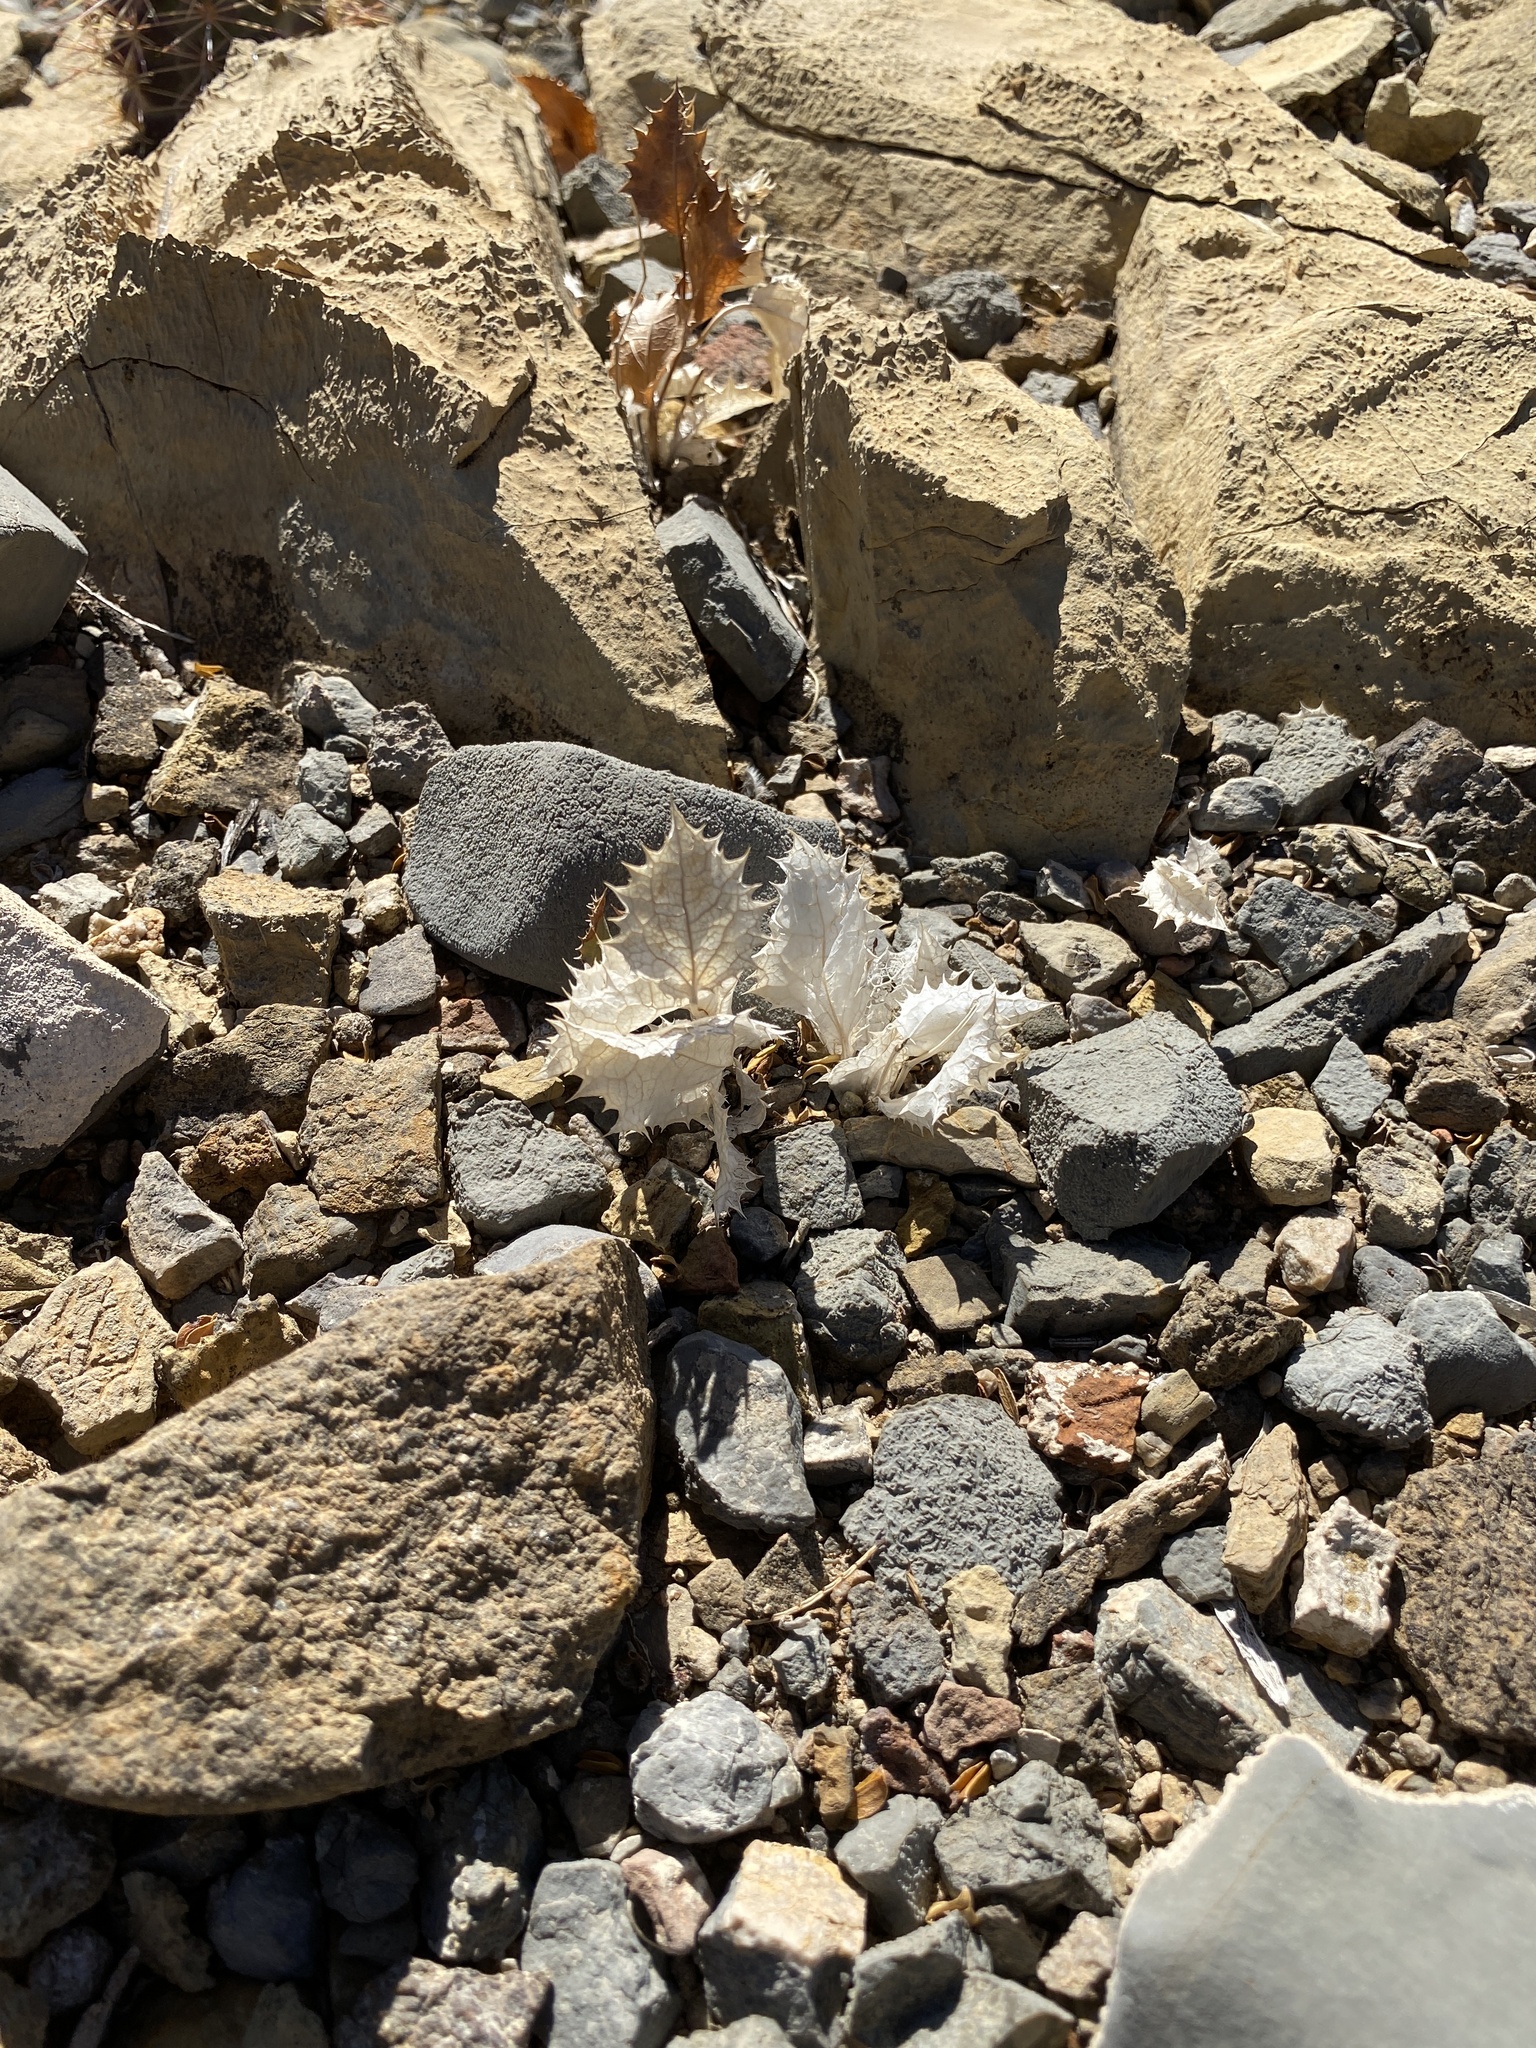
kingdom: Plantae
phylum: Tracheophyta
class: Magnoliopsida
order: Asterales
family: Asteraceae
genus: Acourtia
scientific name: Acourtia nana
